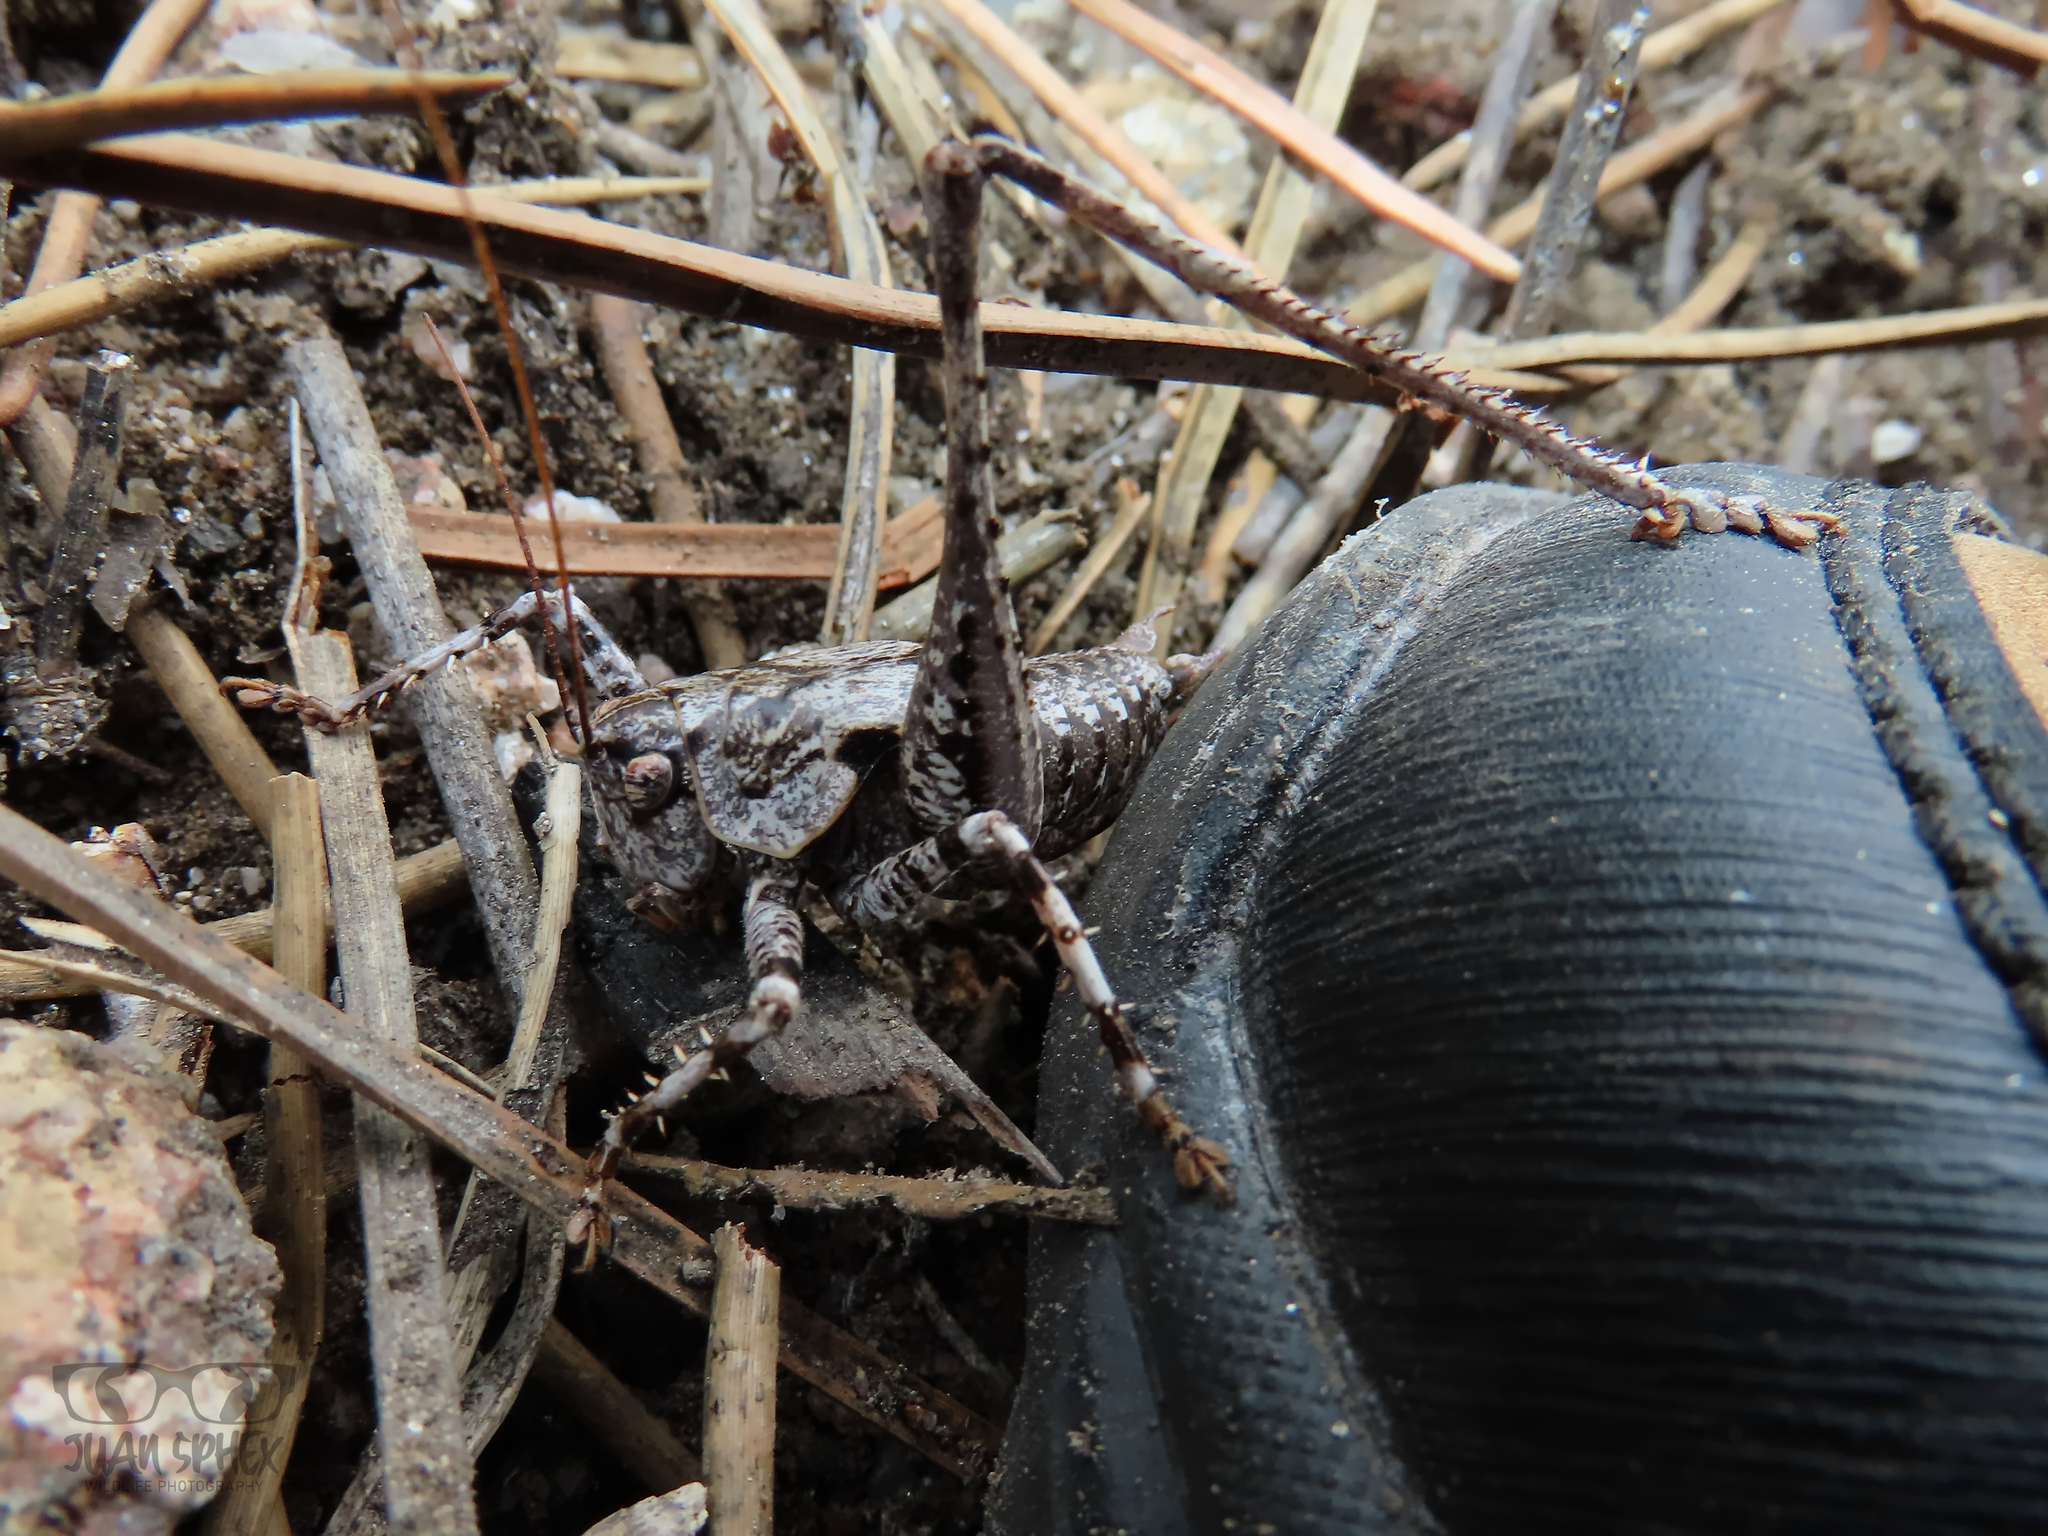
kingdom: Animalia
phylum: Arthropoda
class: Insecta
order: Orthoptera
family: Tettigoniidae
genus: Thyreonotus
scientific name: Thyreonotus bidens
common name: Two-toothed bush-cricket
